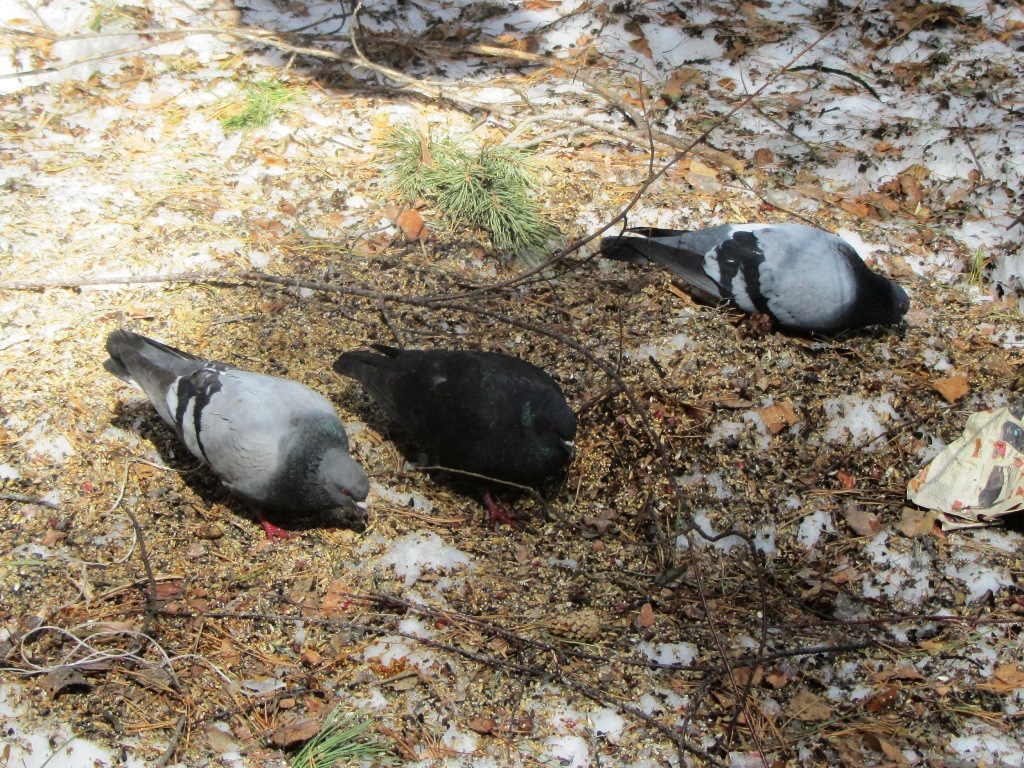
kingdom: Animalia
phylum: Chordata
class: Aves
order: Columbiformes
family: Columbidae
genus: Columba
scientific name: Columba livia
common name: Rock pigeon
